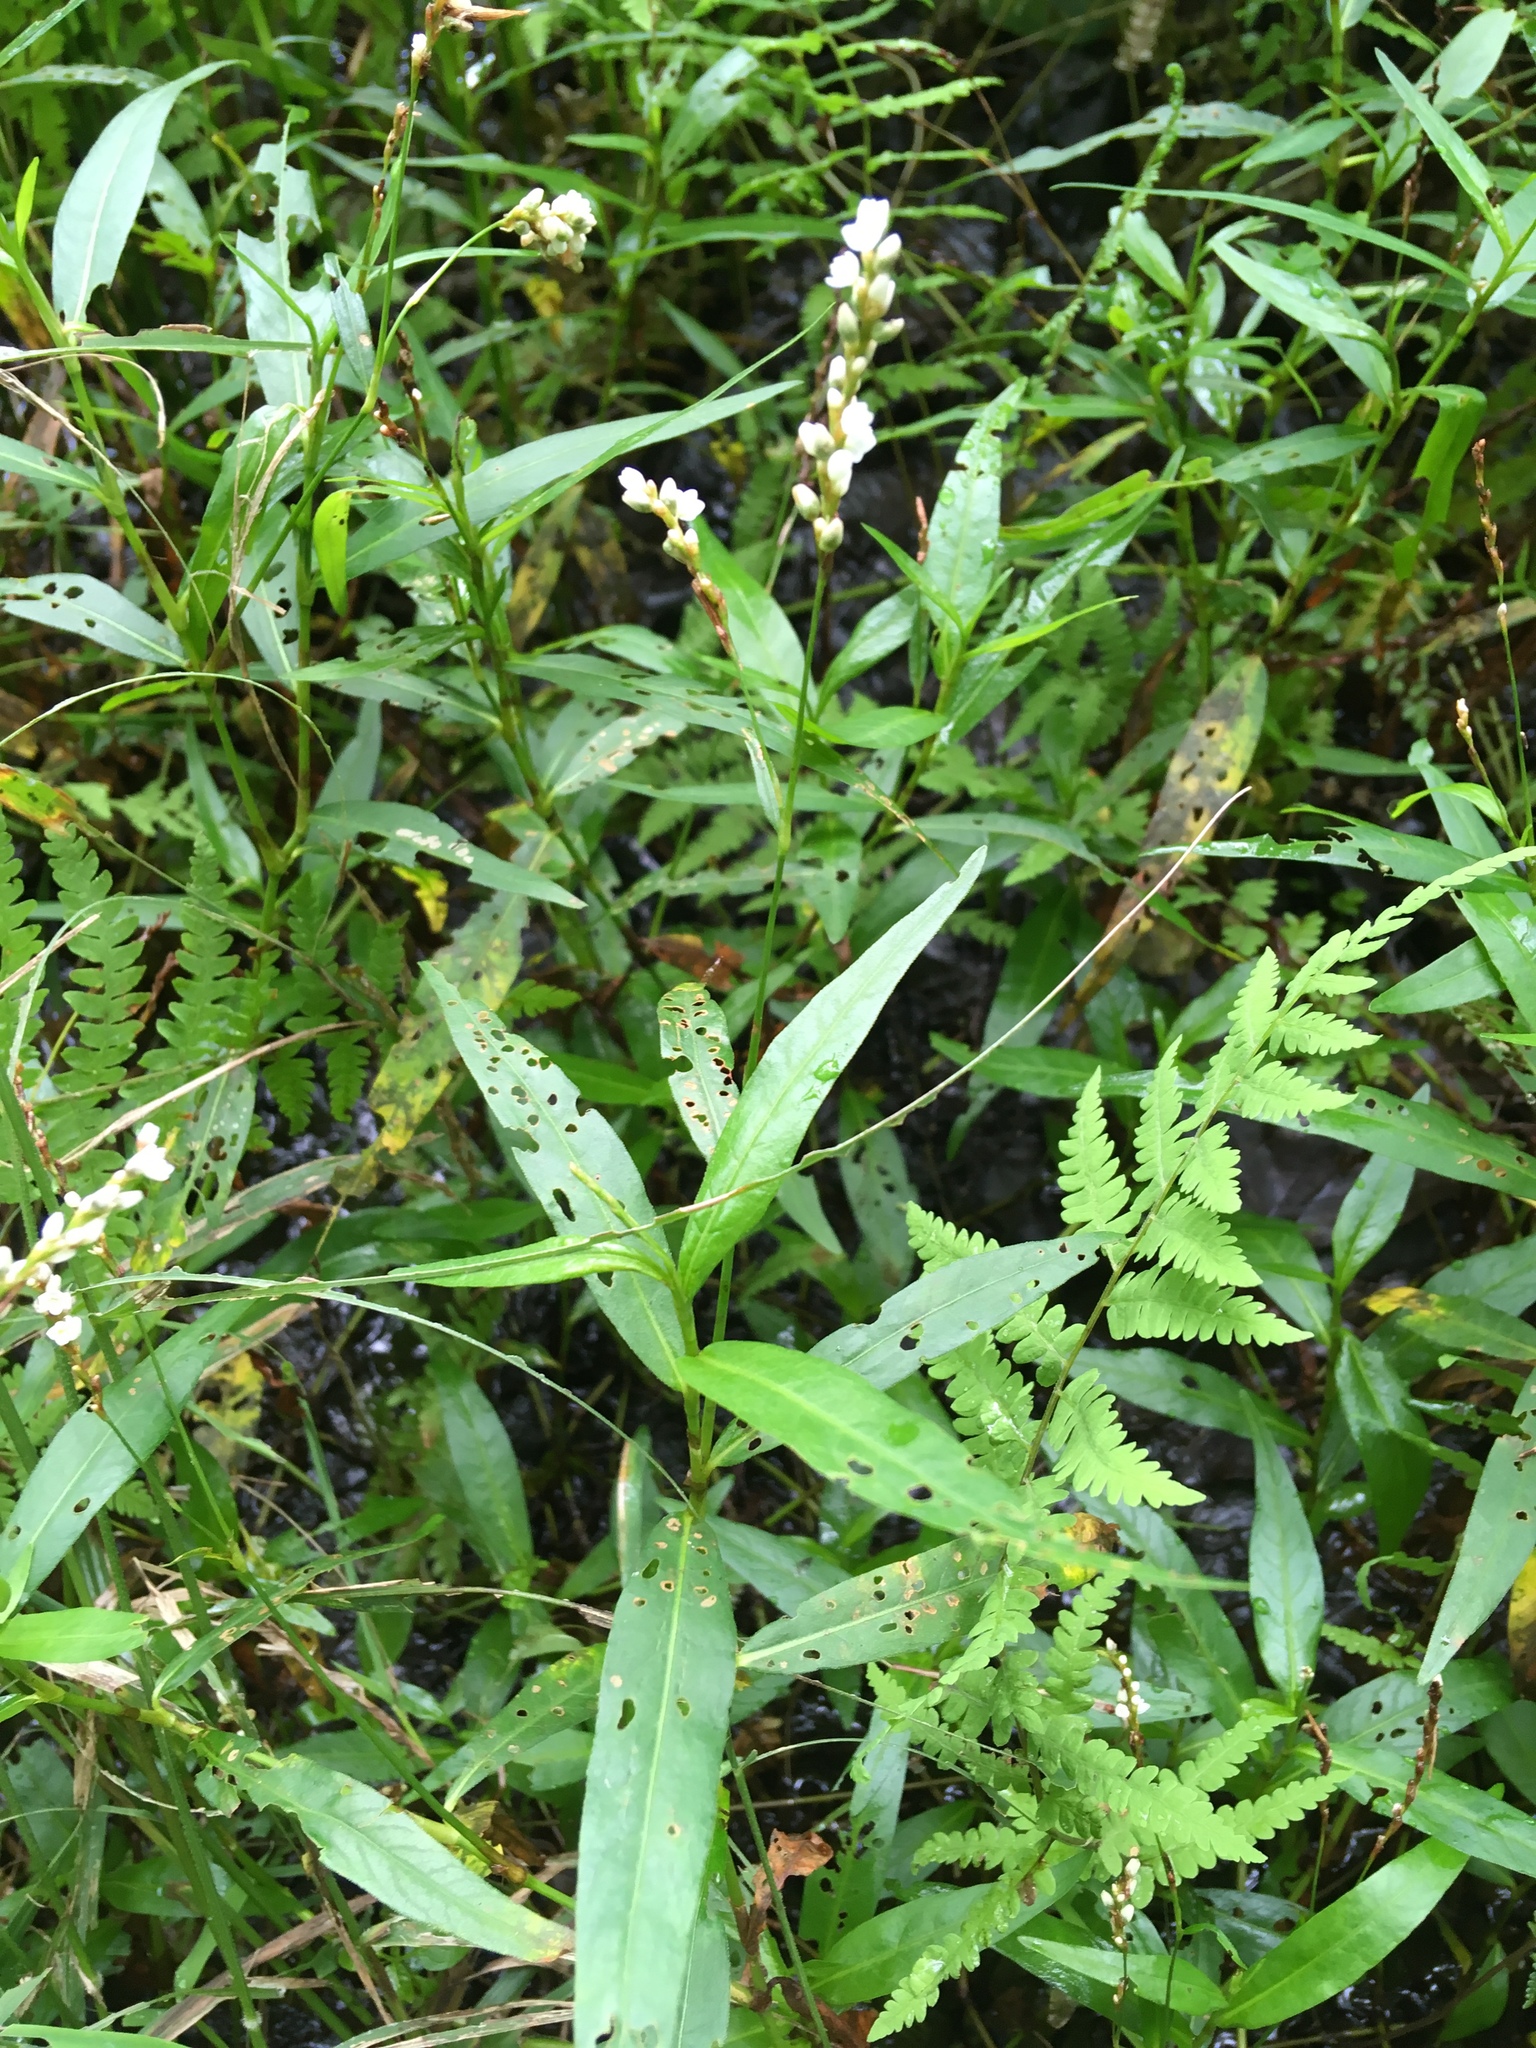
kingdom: Plantae
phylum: Tracheophyta
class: Magnoliopsida
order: Caryophyllales
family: Polygonaceae
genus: Persicaria
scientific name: Persicaria hydropiperoides
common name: Swamp smartweed
